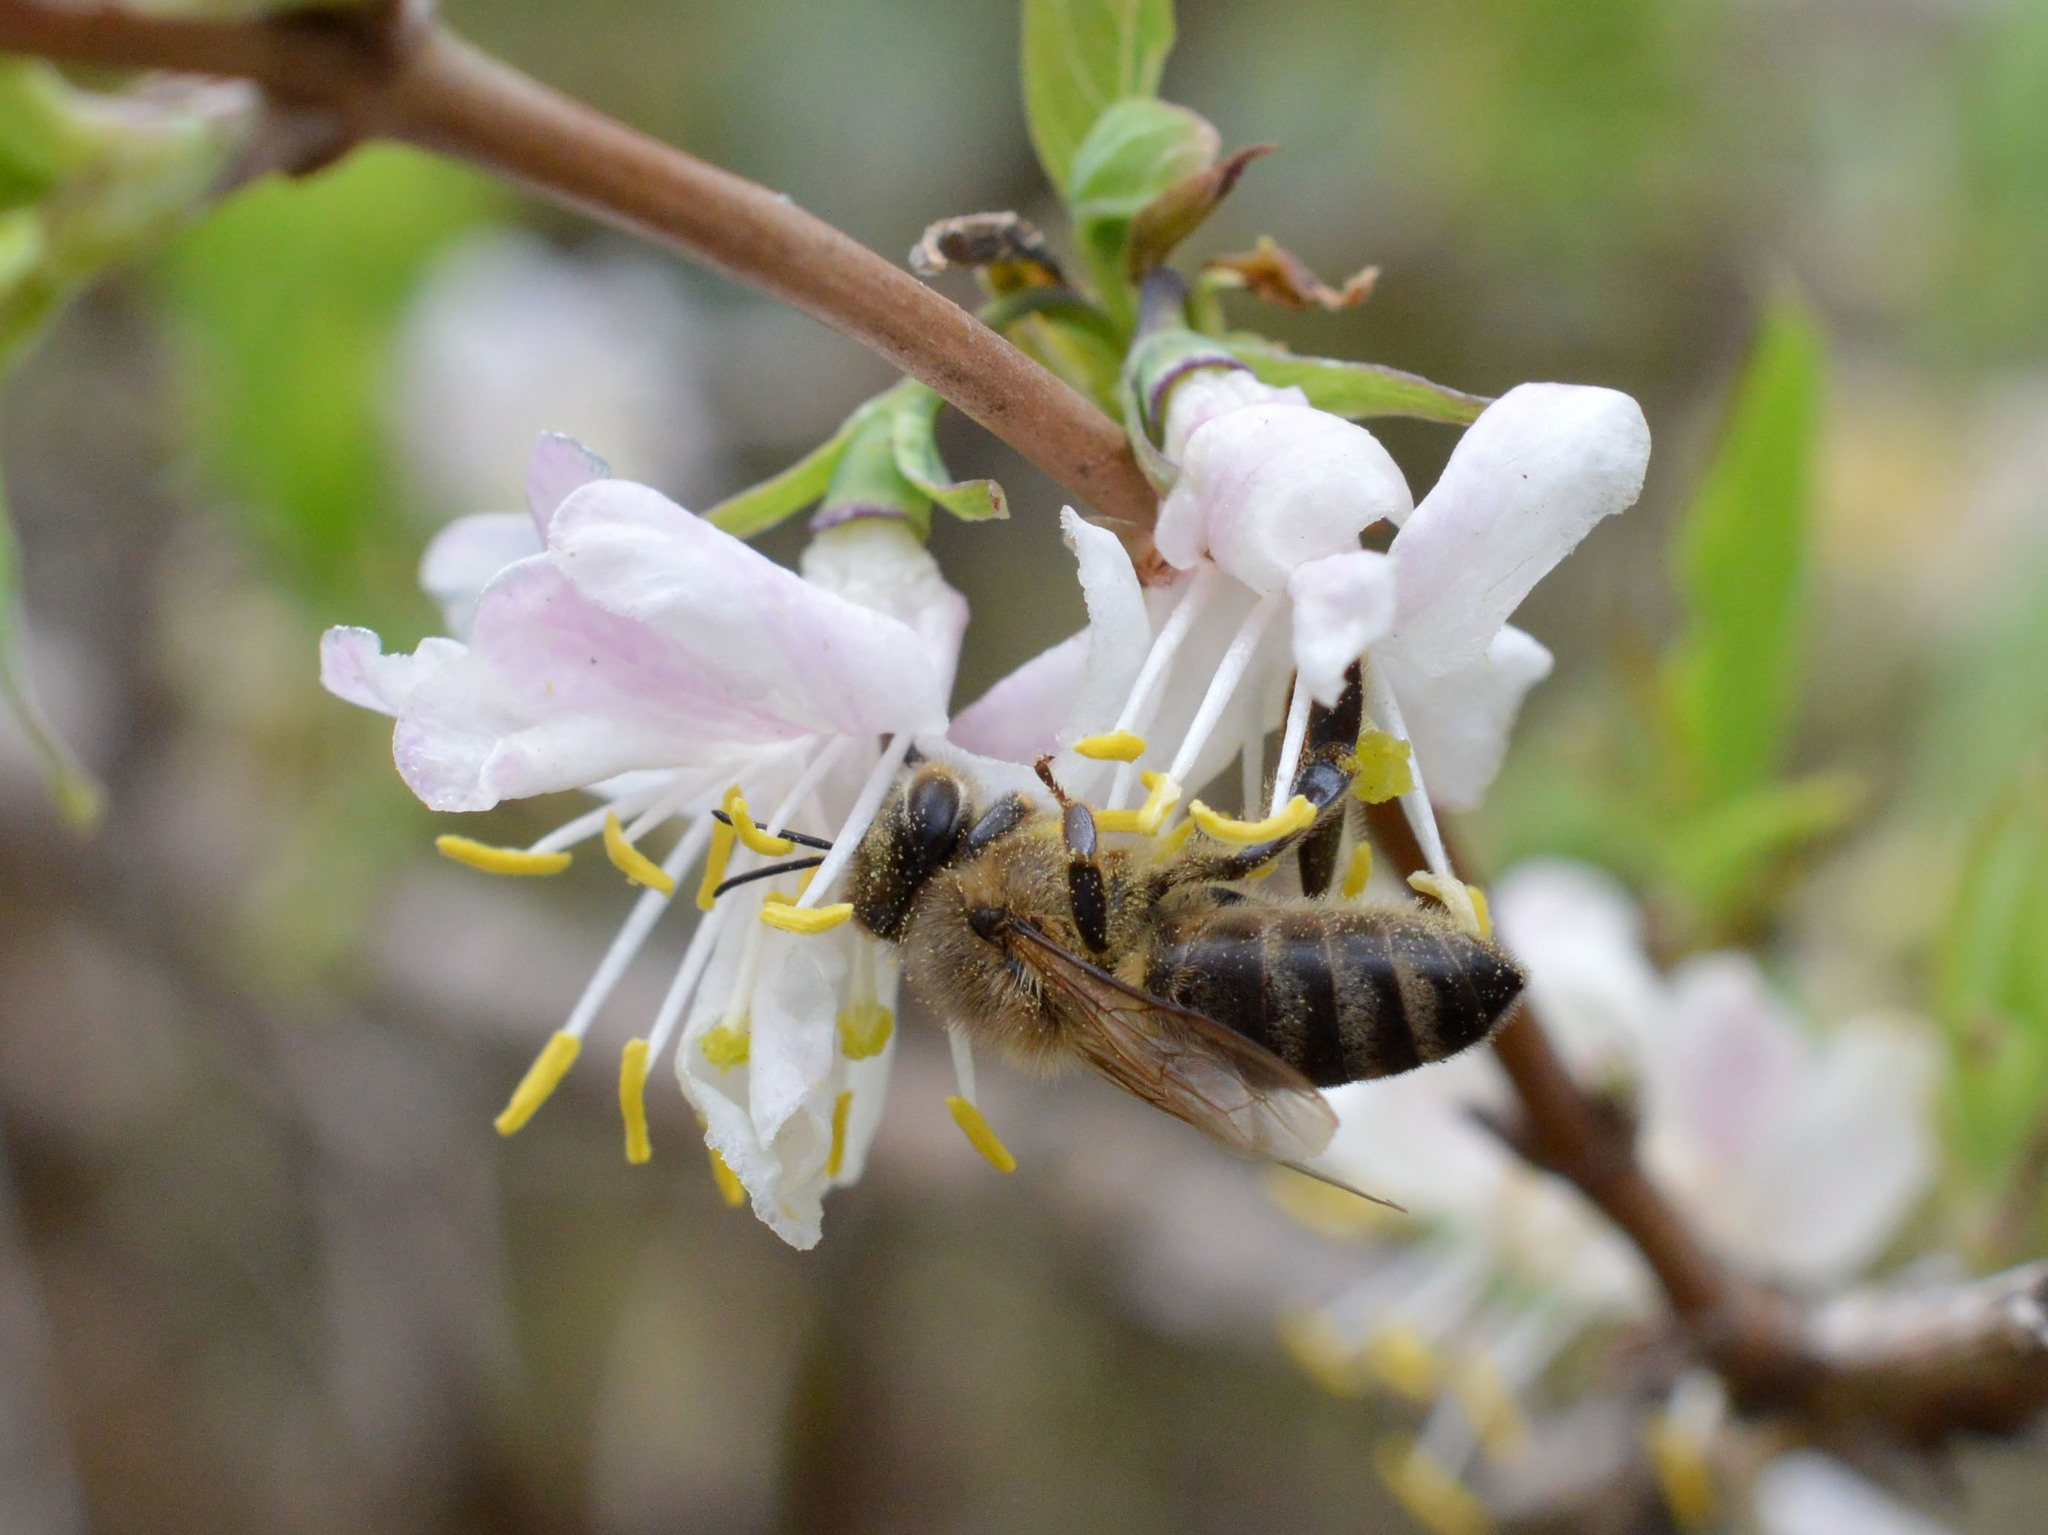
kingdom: Animalia
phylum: Arthropoda
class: Insecta
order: Hymenoptera
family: Apidae
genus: Apis
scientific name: Apis mellifera
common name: Honey bee
